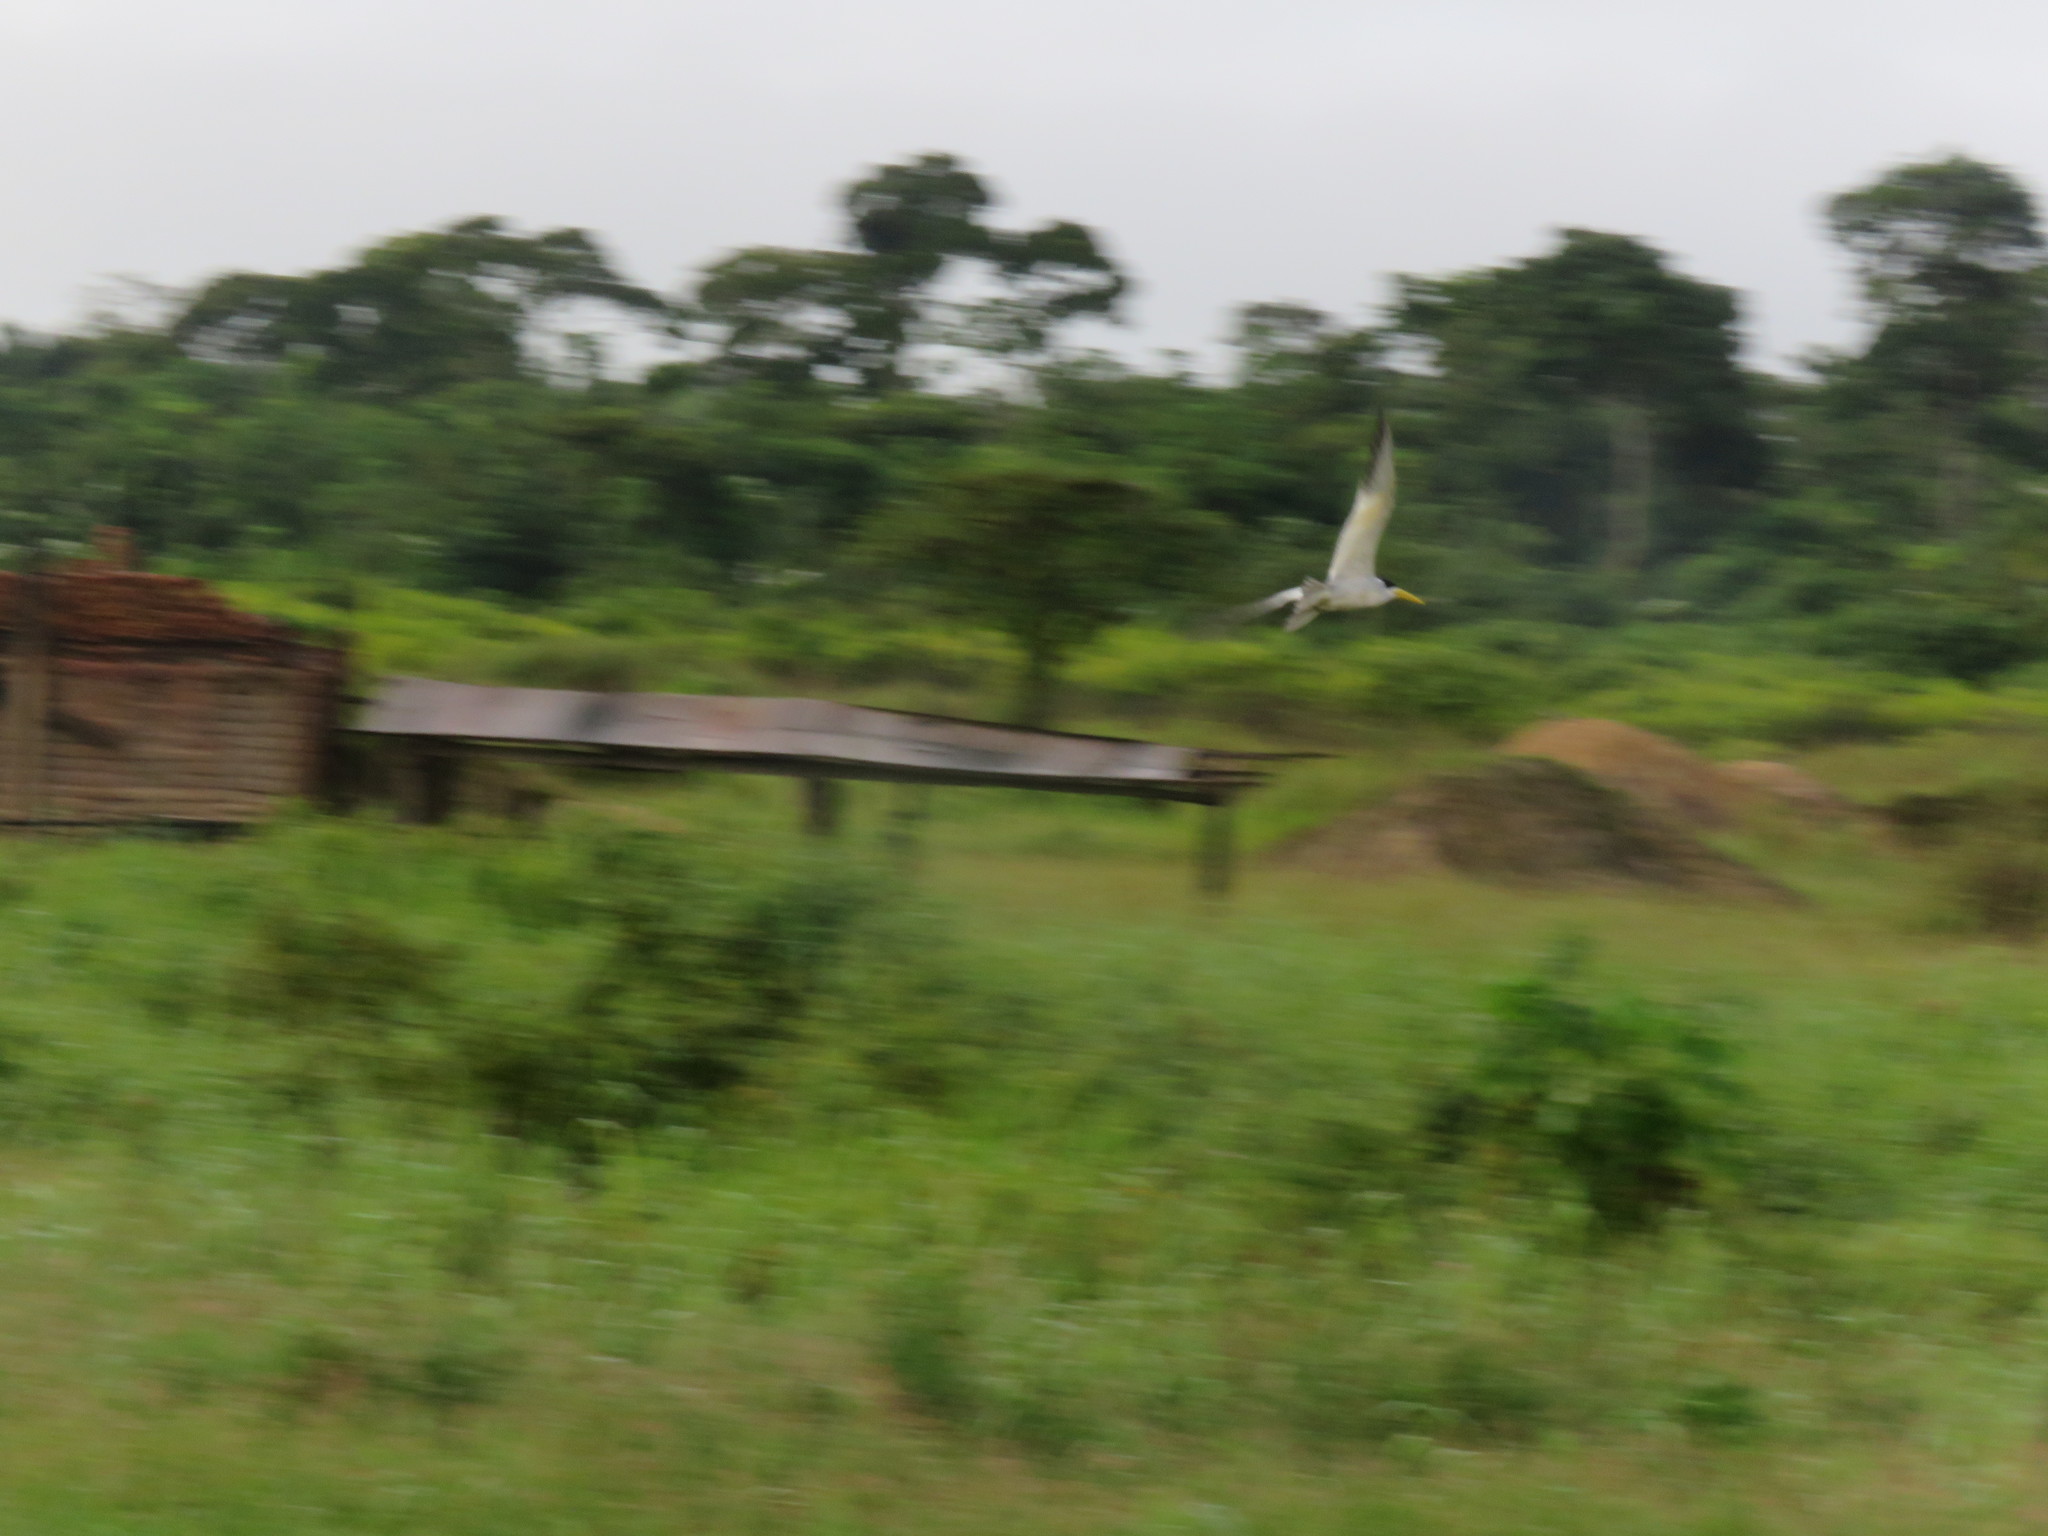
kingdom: Animalia
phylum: Chordata
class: Aves
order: Charadriiformes
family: Laridae
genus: Phaetusa
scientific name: Phaetusa simplex
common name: Large-billed tern
